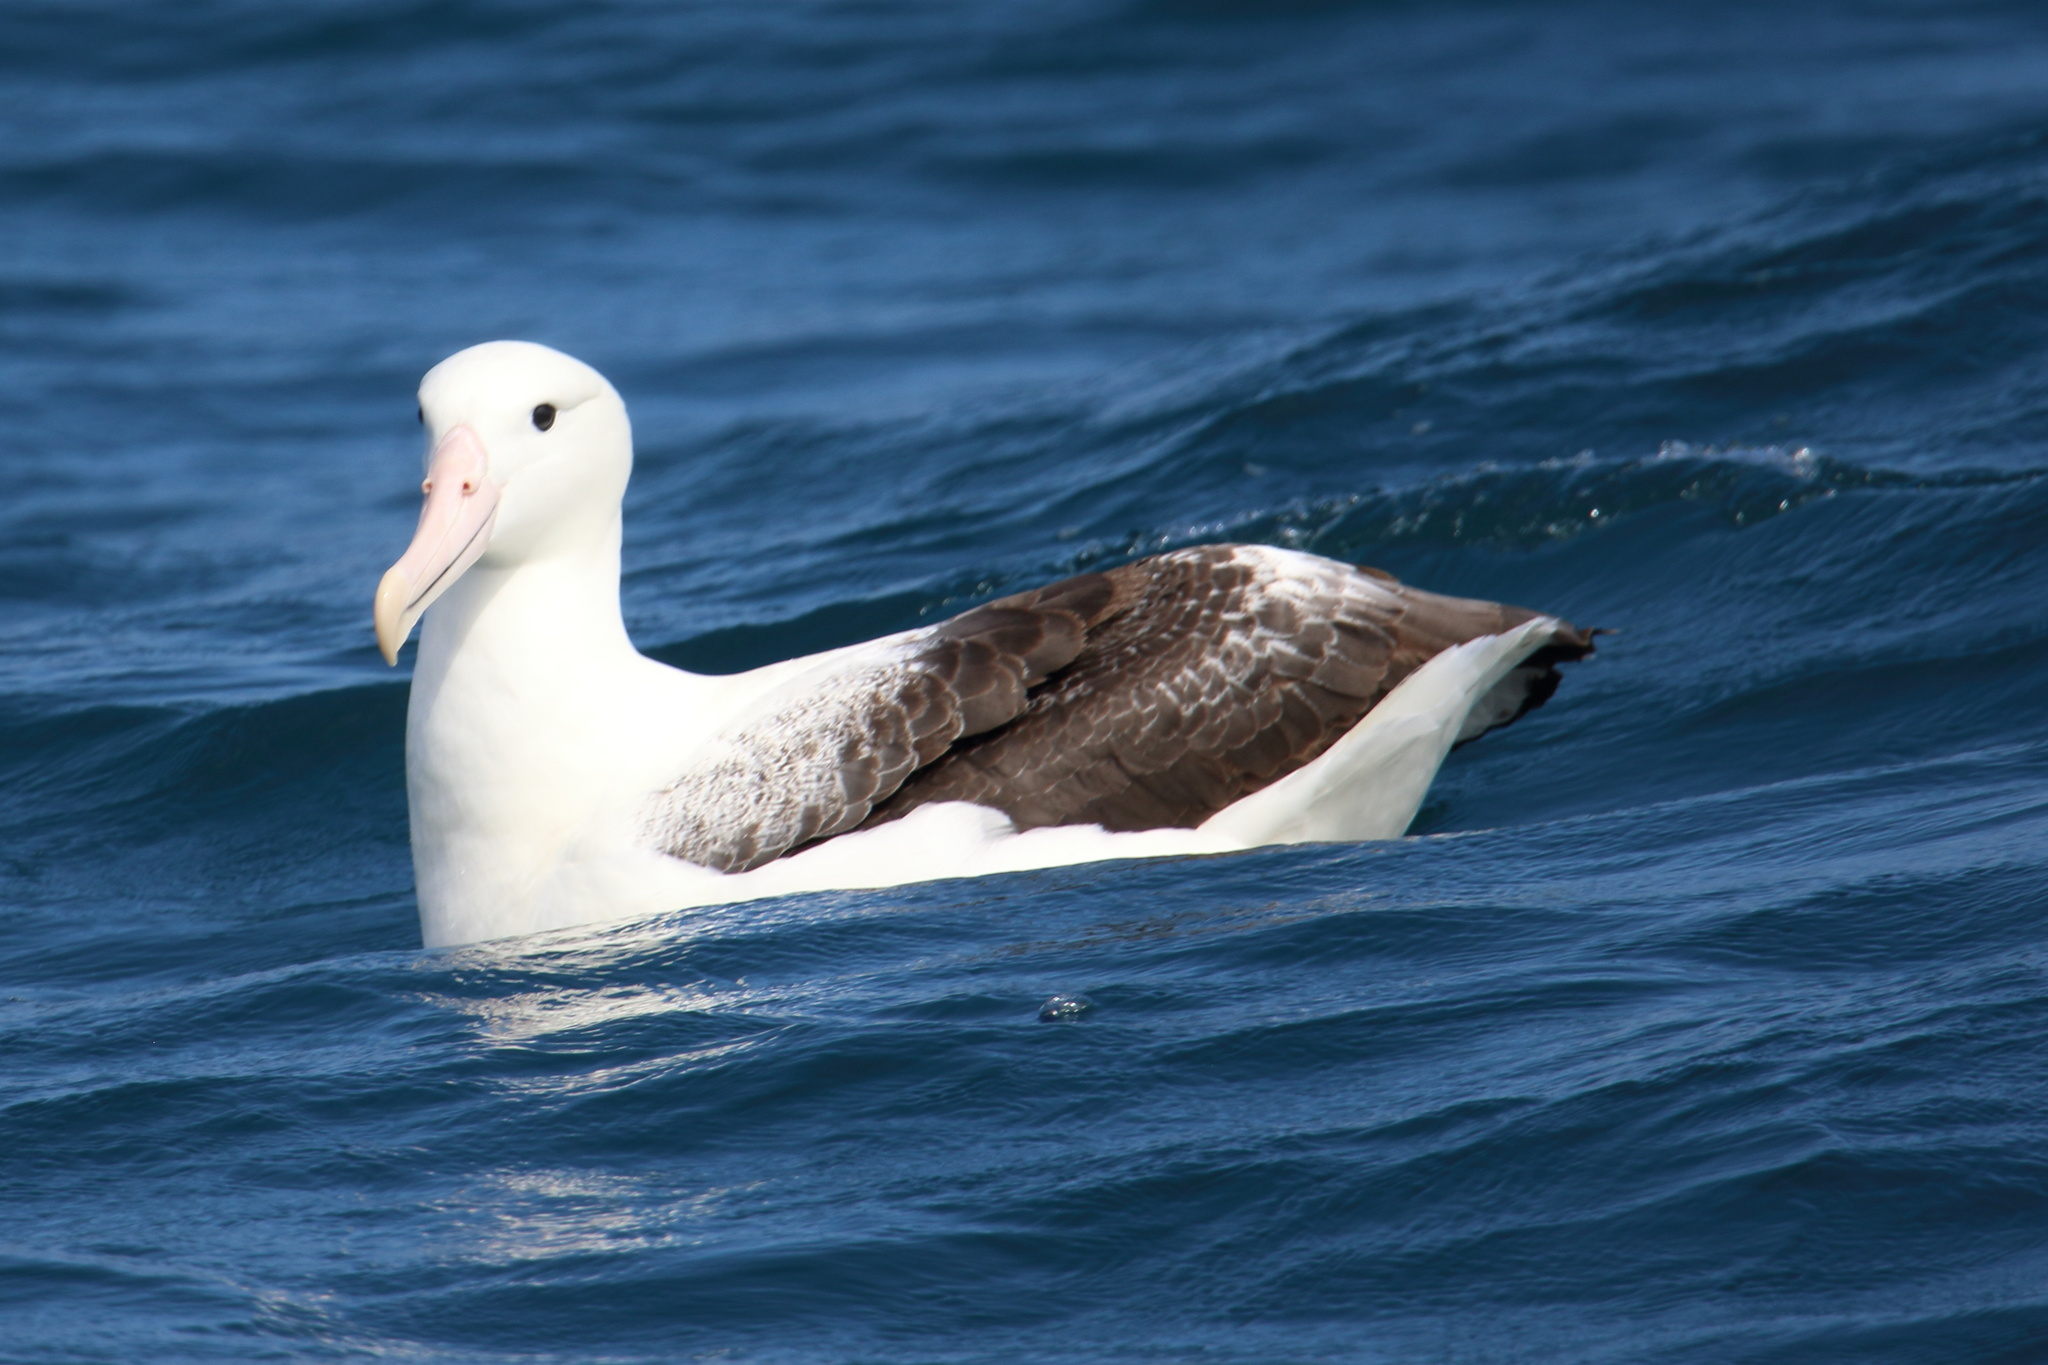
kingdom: Animalia
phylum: Chordata
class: Aves
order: Procellariiformes
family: Diomedeidae
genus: Diomedea
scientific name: Diomedea epomophora
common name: Southern royal albatross
